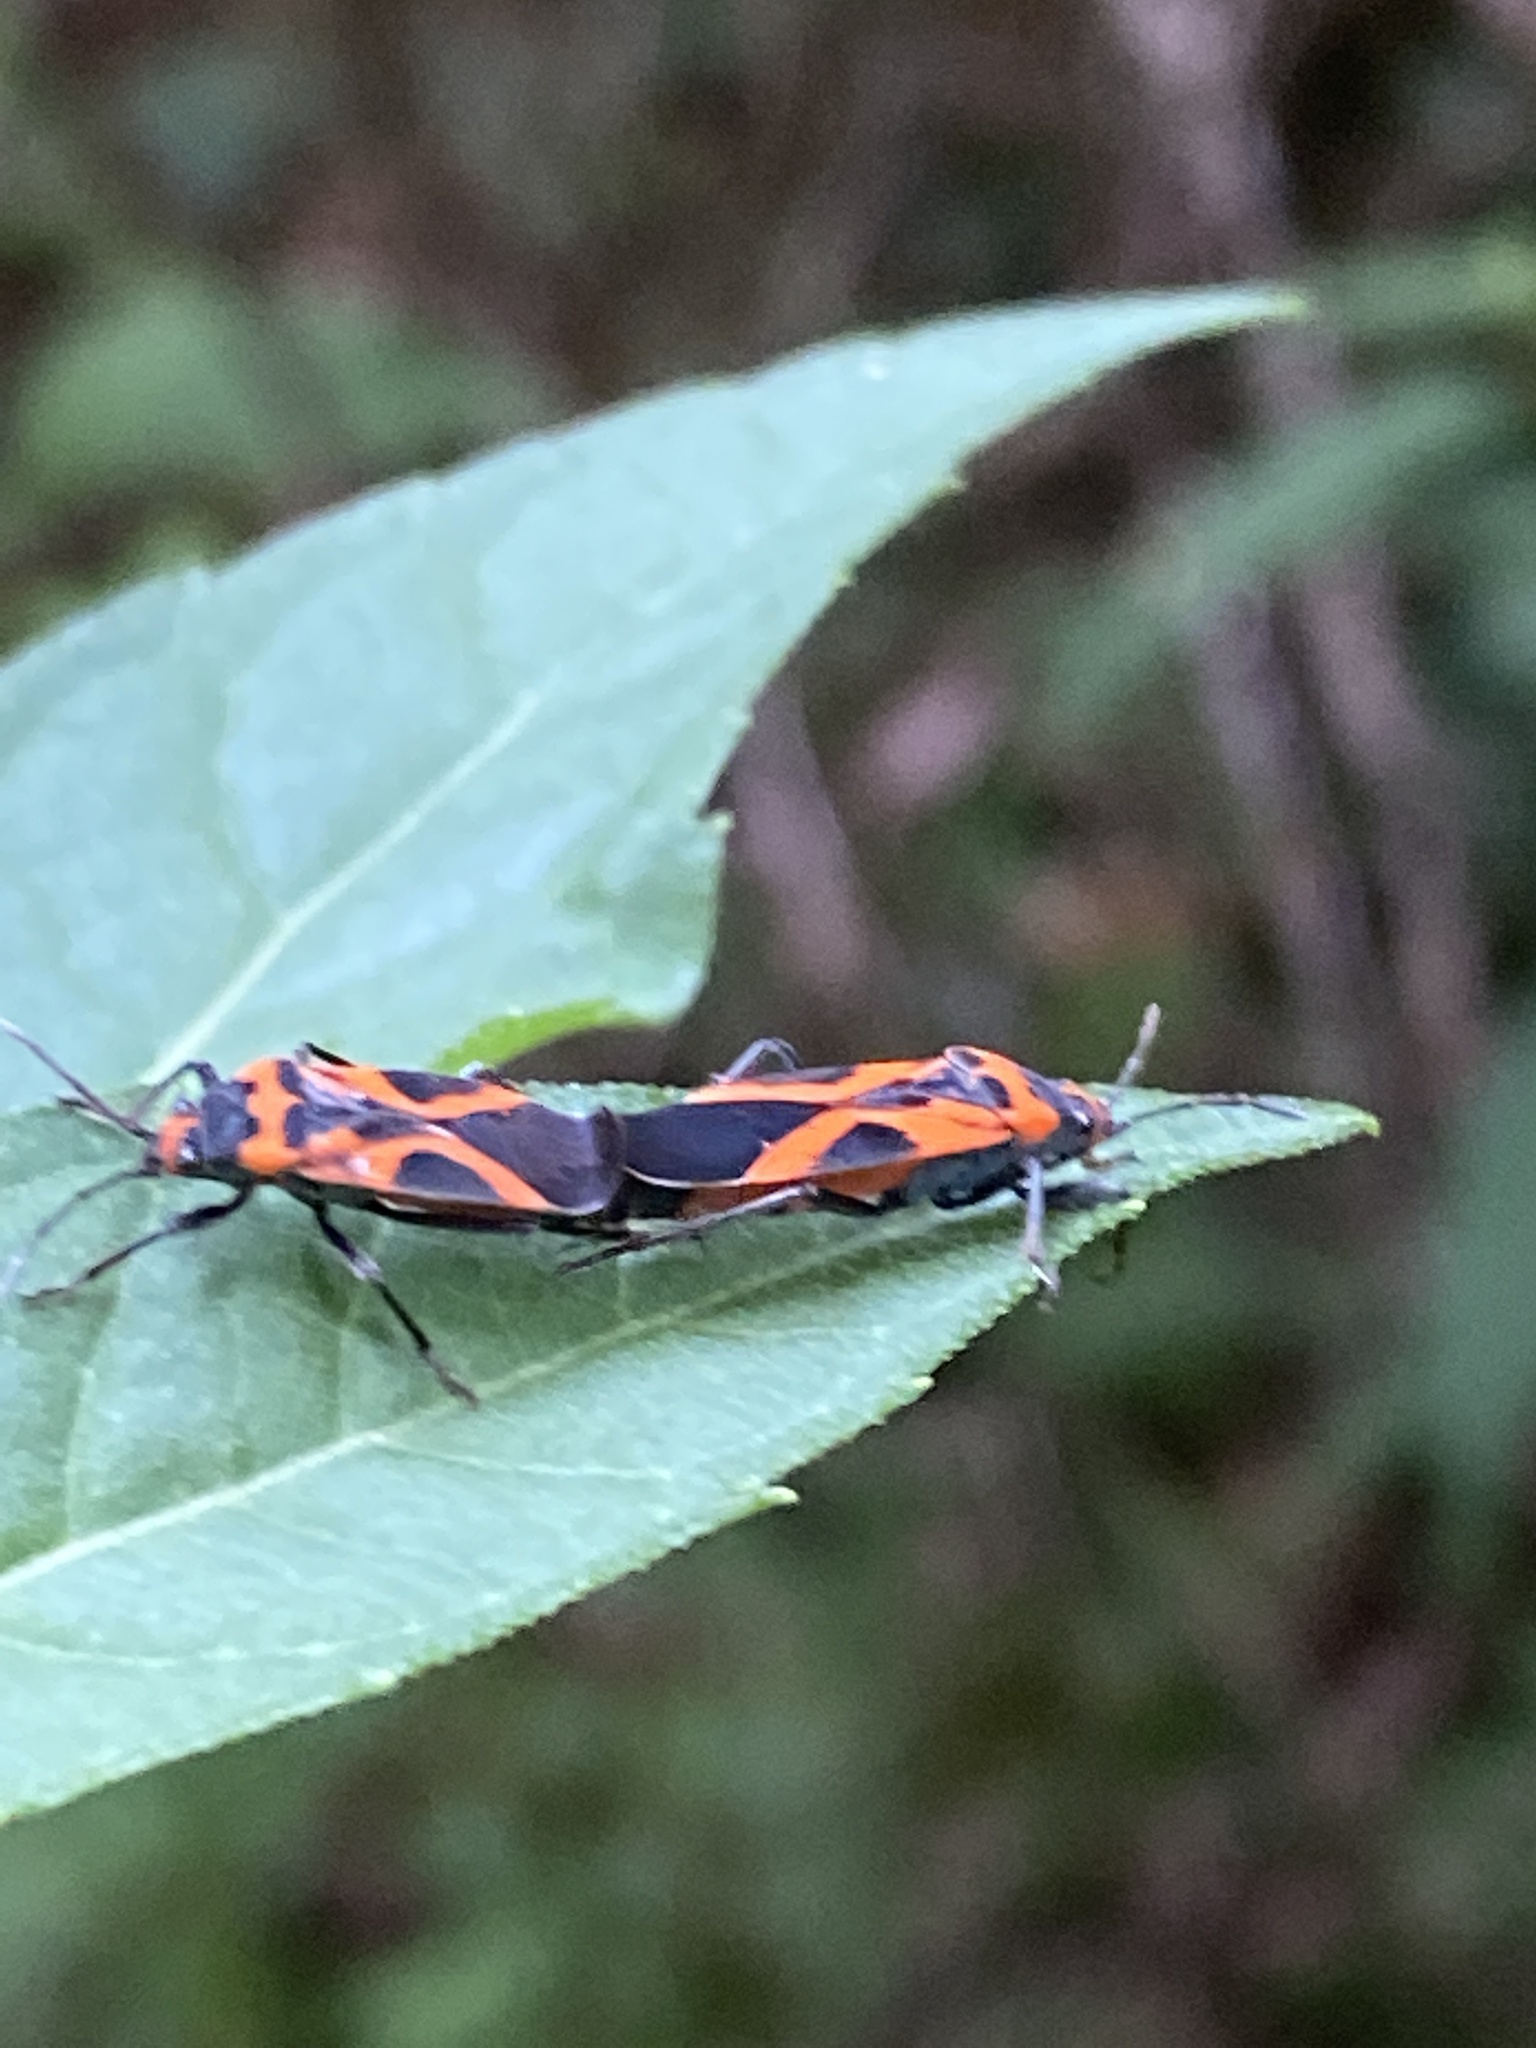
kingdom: Animalia
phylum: Arthropoda
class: Insecta
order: Hemiptera
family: Lygaeidae
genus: Lygaeus
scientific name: Lygaeus turcicus
